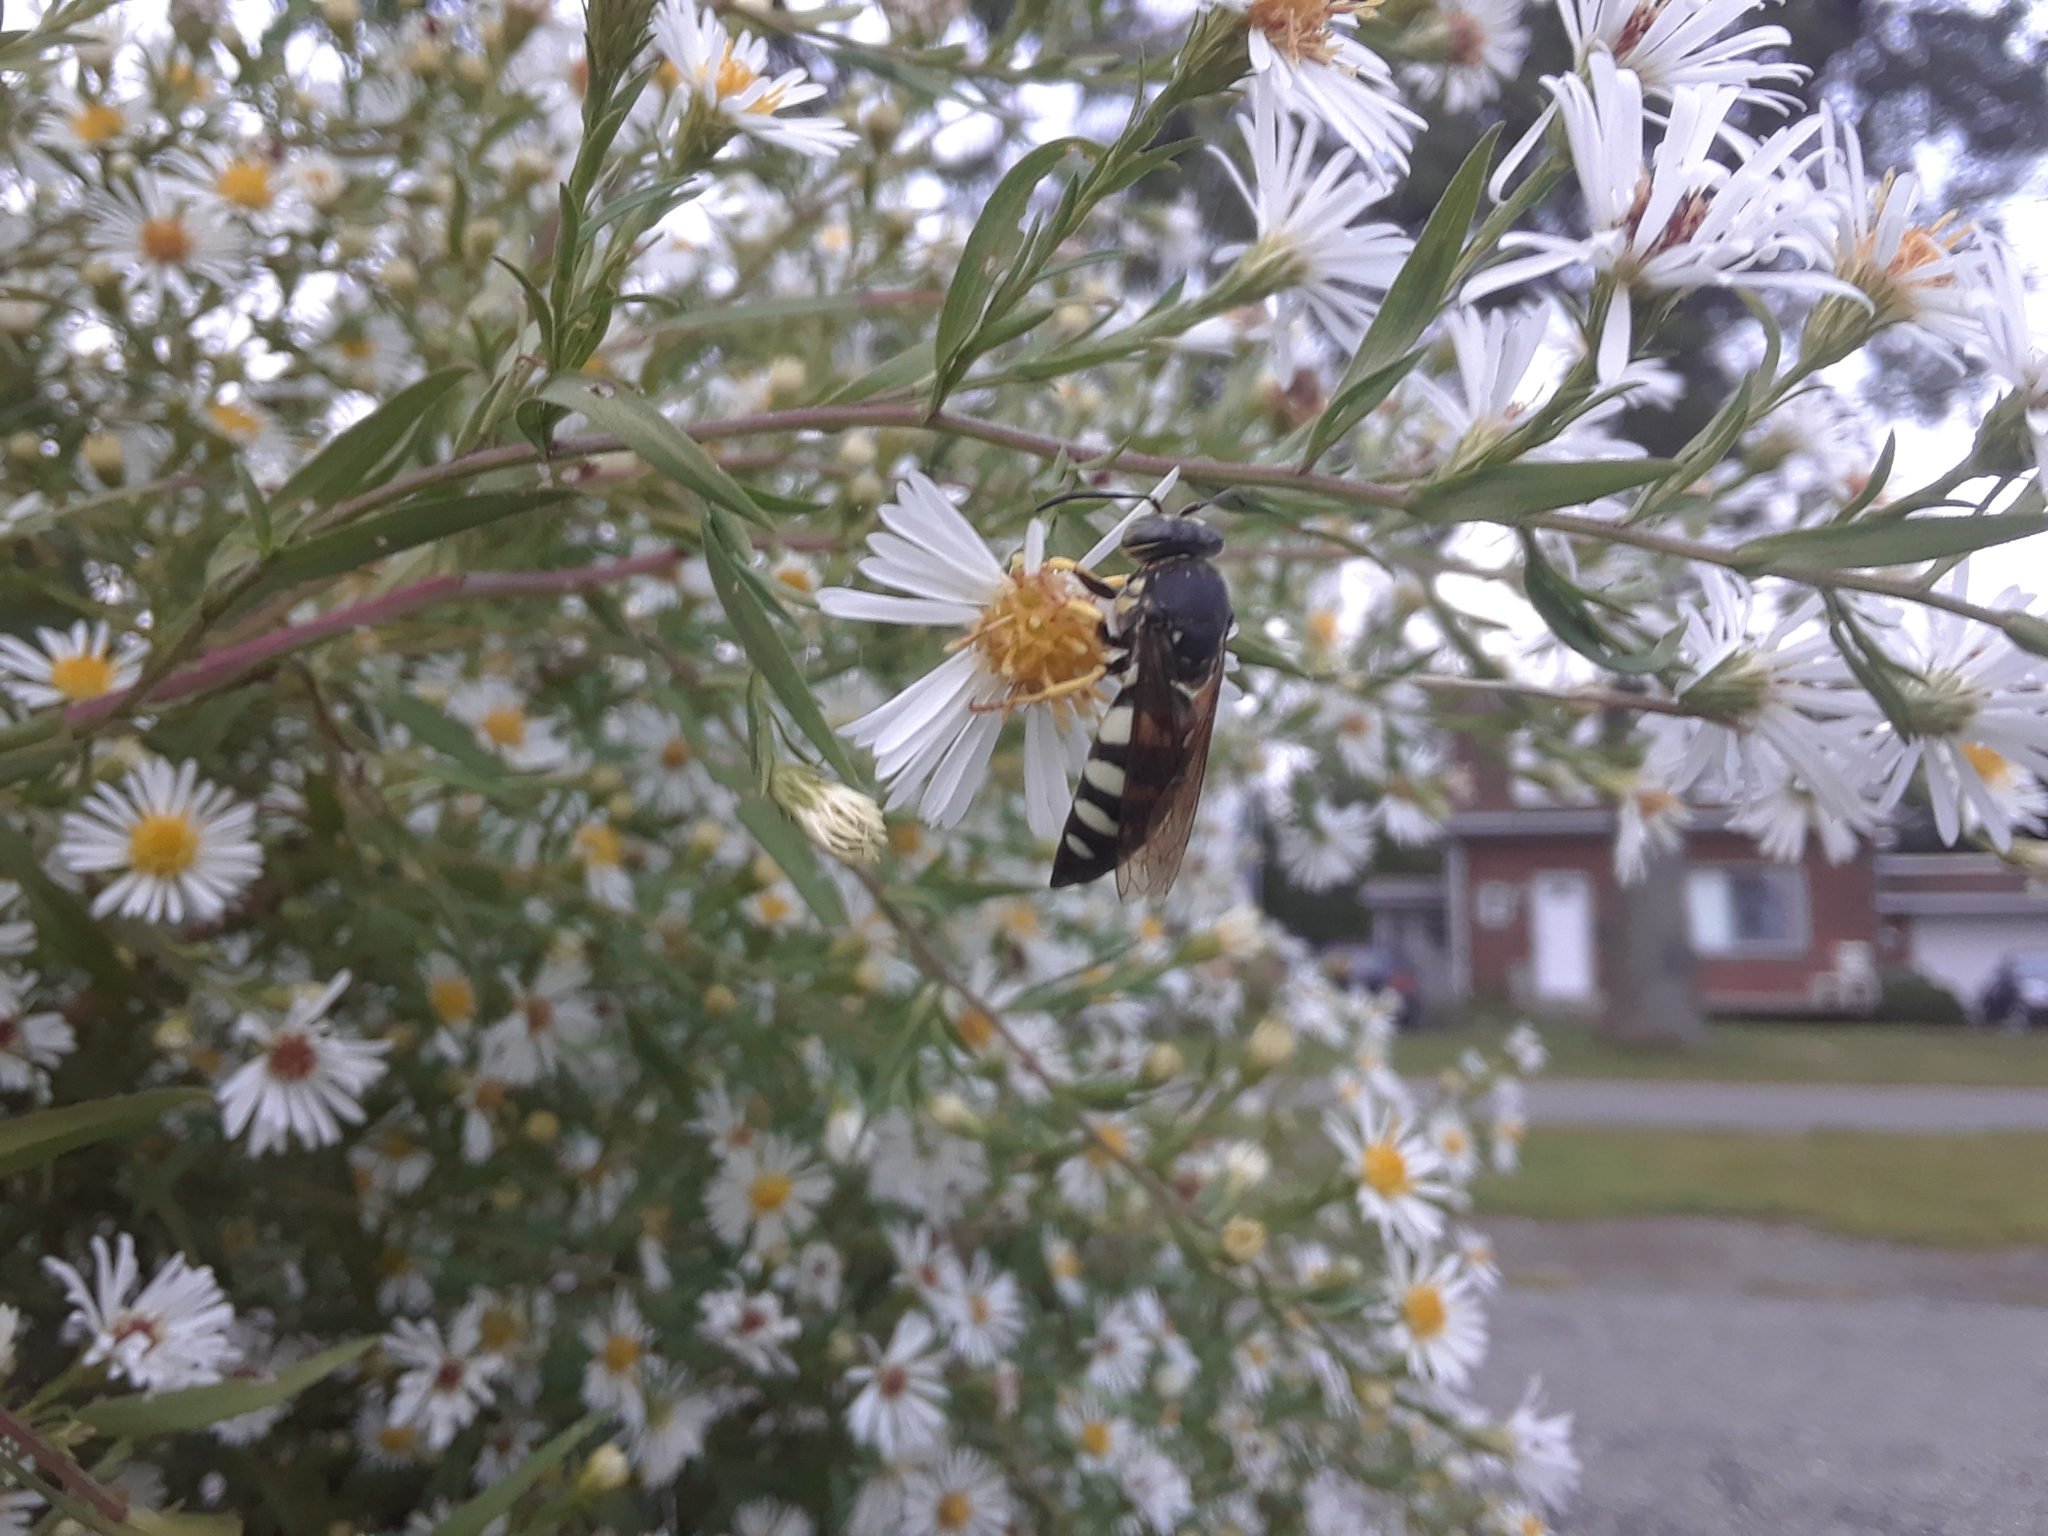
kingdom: Animalia
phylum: Arthropoda
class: Insecta
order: Hymenoptera
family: Crabronidae
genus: Bicyrtes
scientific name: Bicyrtes quadrifasciatus
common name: Four-banded stink bug hunter wasp
